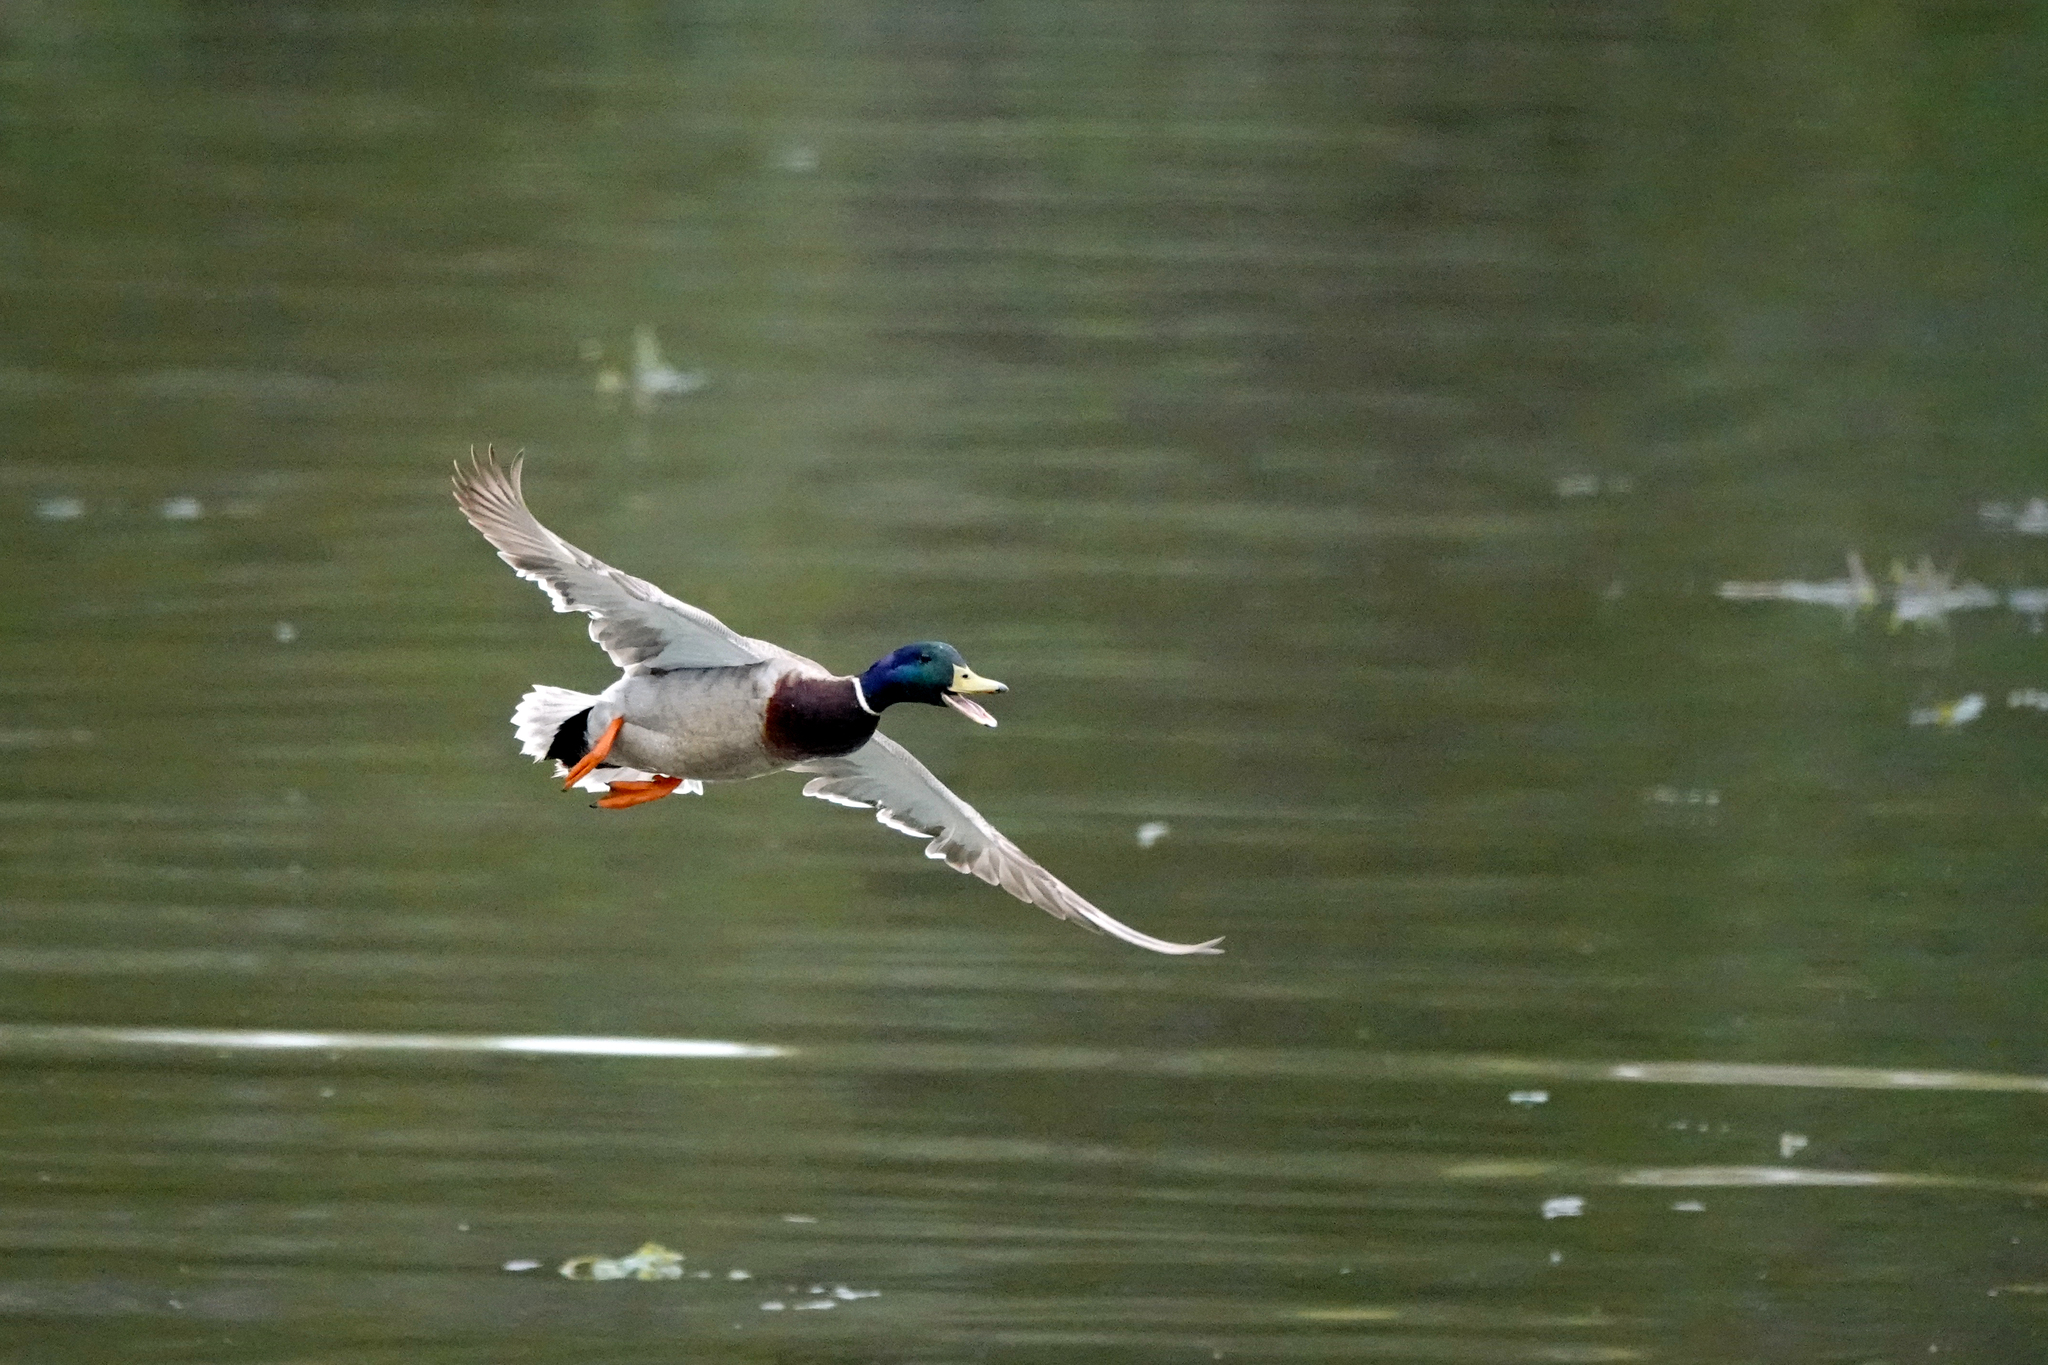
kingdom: Animalia
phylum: Chordata
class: Aves
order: Anseriformes
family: Anatidae
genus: Anas
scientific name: Anas platyrhynchos
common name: Mallard
